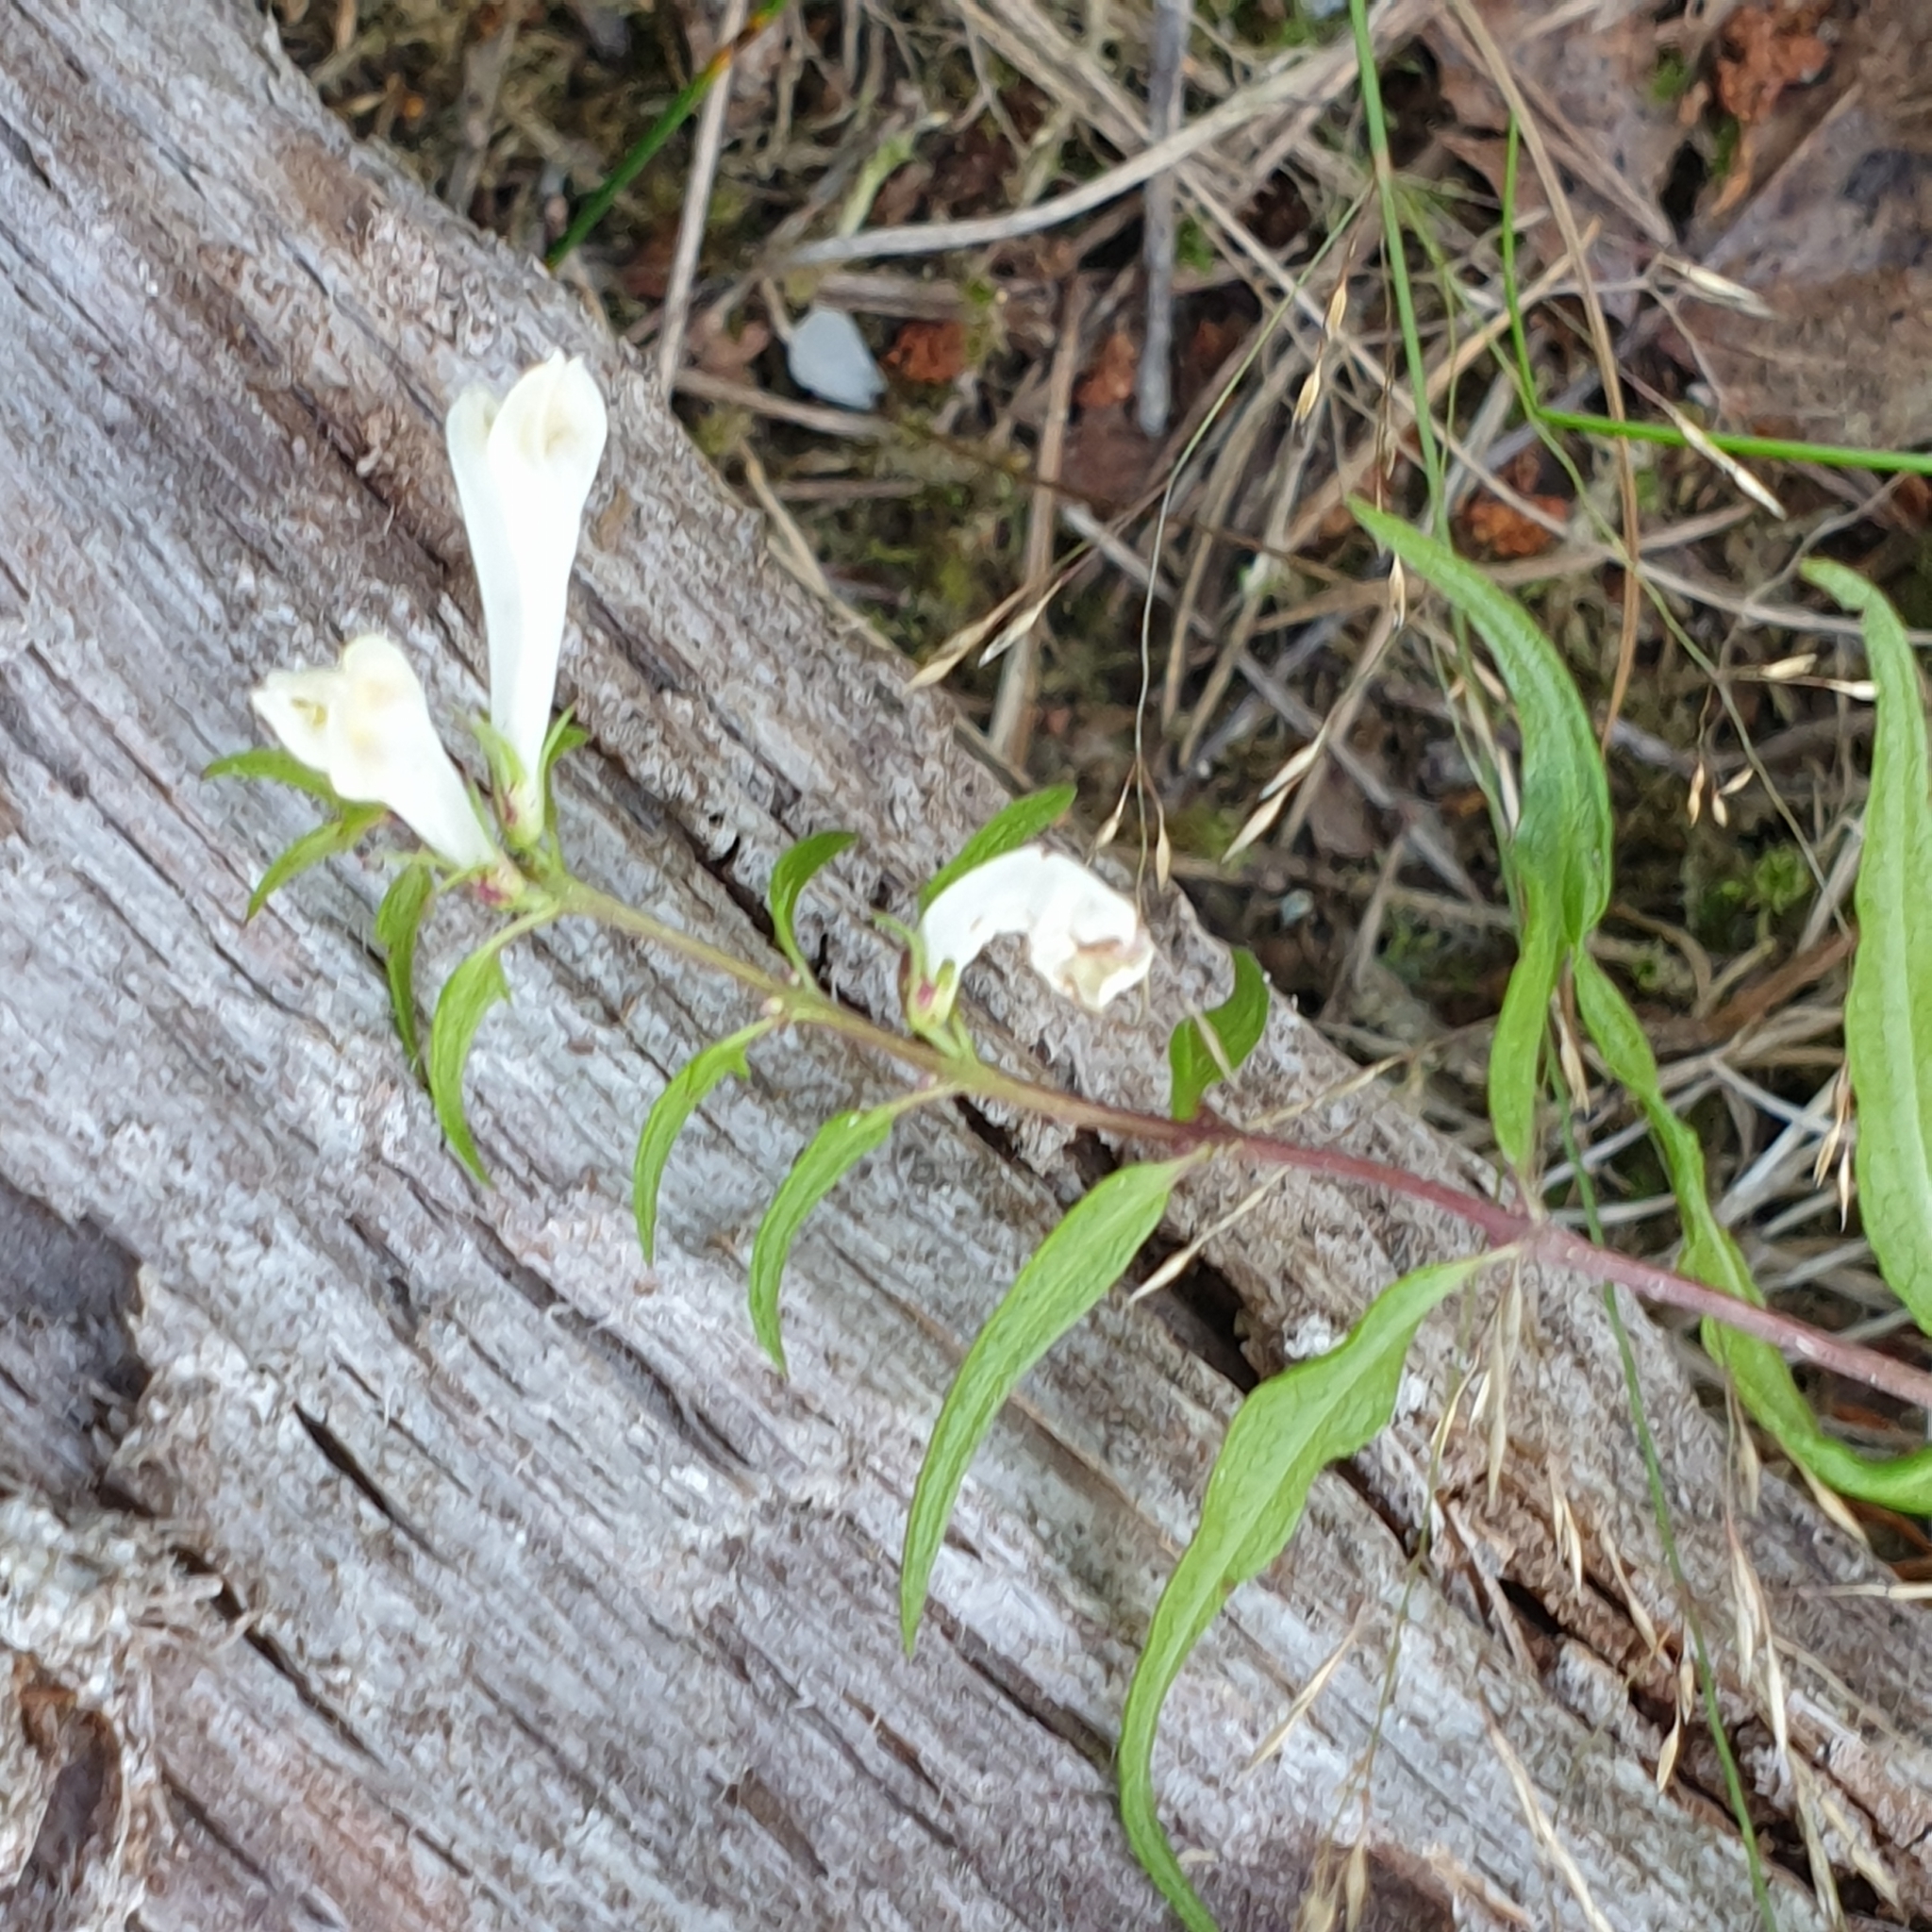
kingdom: Plantae
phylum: Tracheophyta
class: Magnoliopsida
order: Lamiales
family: Orobanchaceae
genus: Melampyrum
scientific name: Melampyrum pratense
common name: Common cow-wheat
